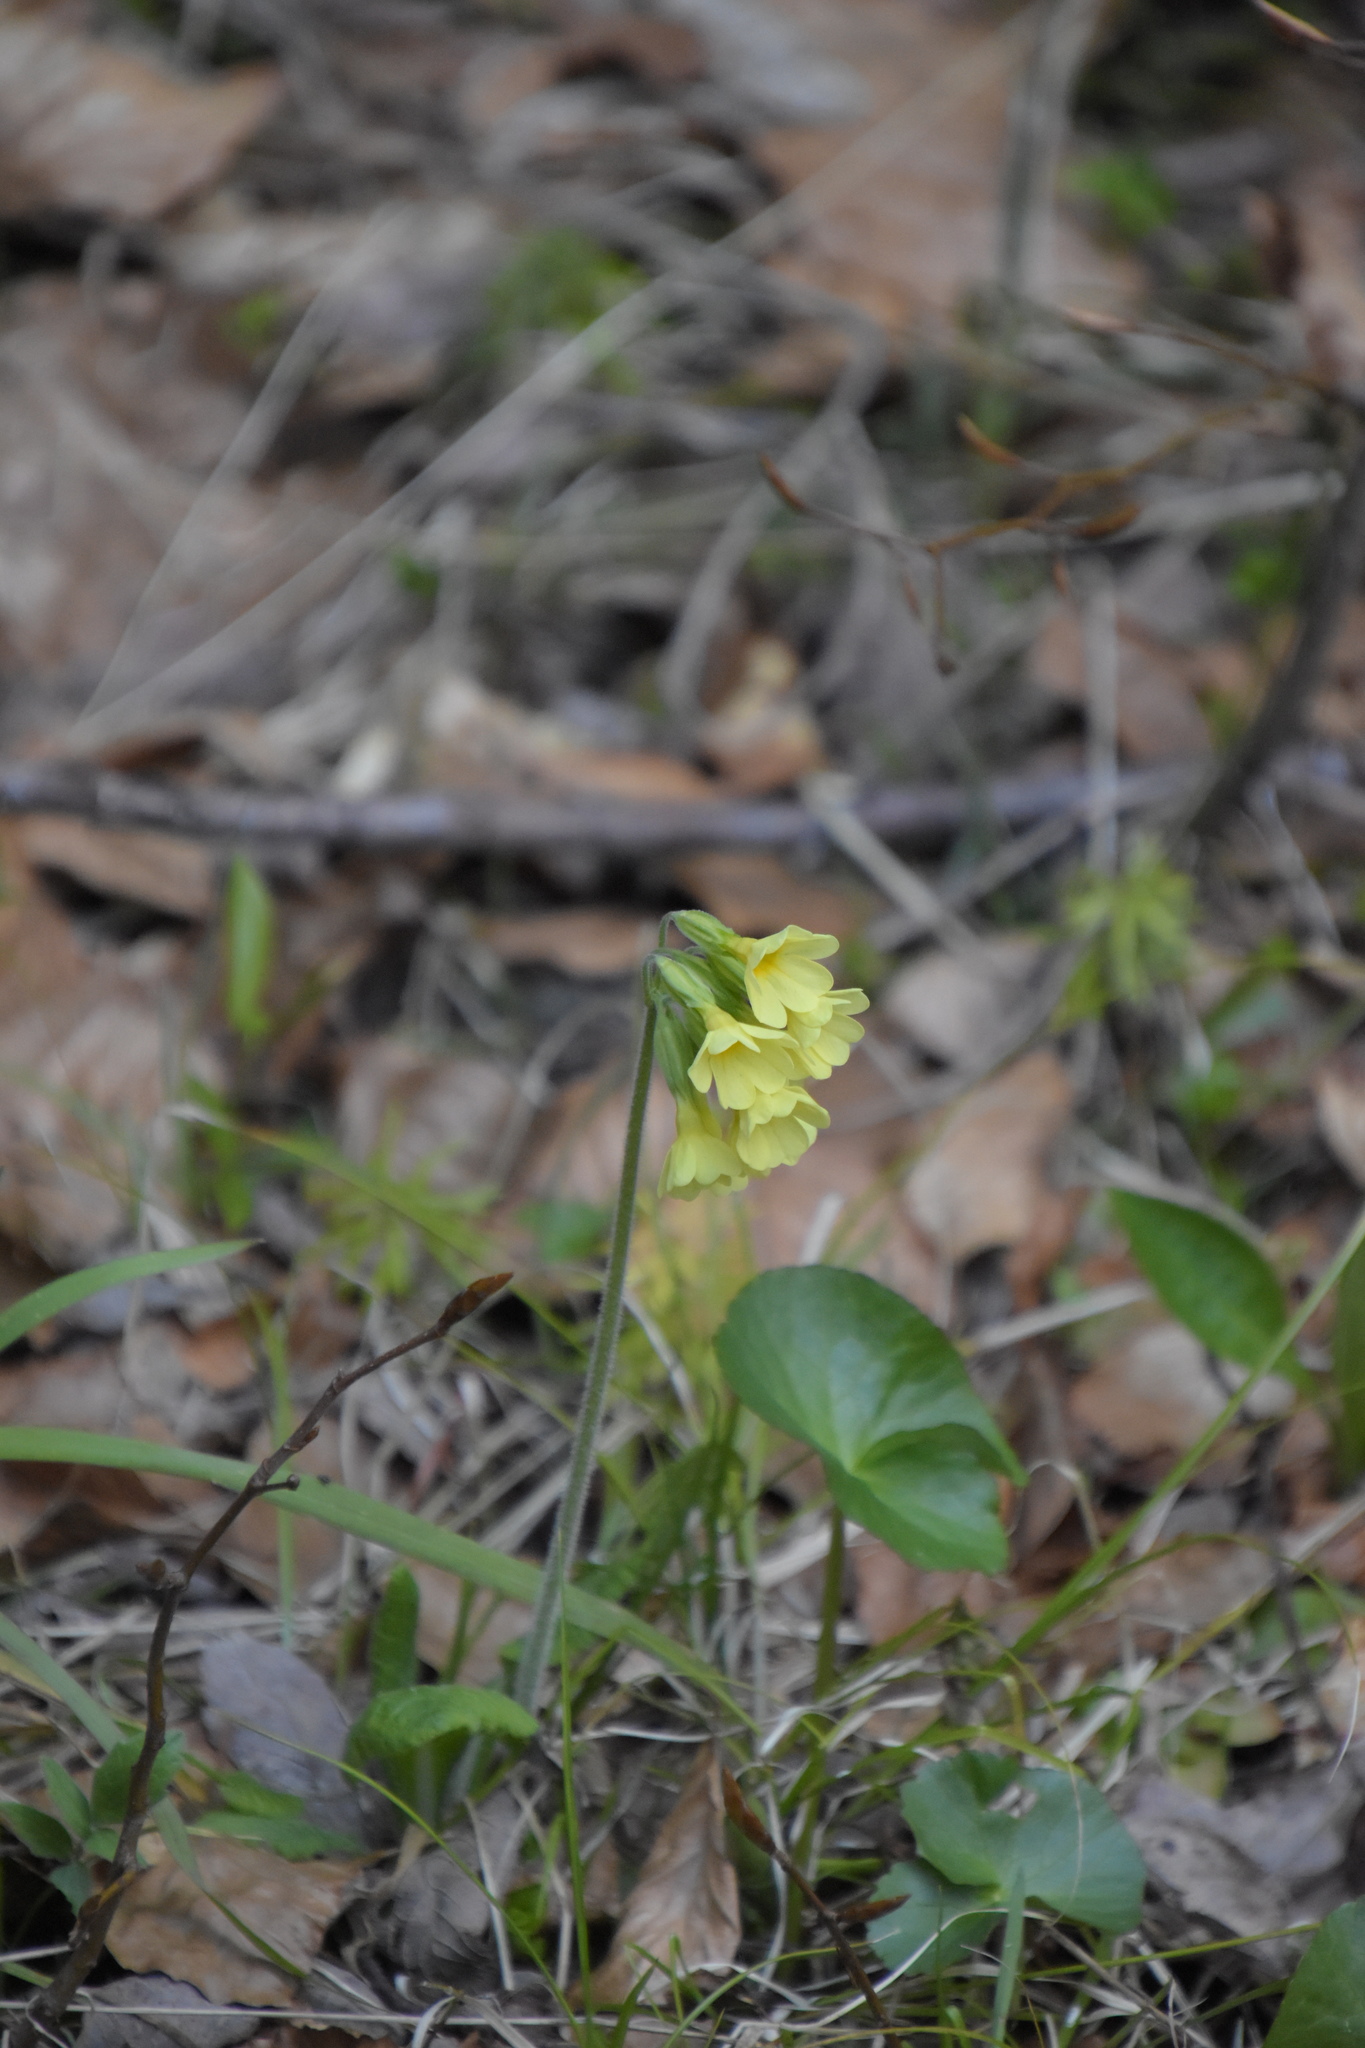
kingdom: Plantae
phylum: Tracheophyta
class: Magnoliopsida
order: Ericales
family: Primulaceae
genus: Primula
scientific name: Primula elatior
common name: Oxlip
